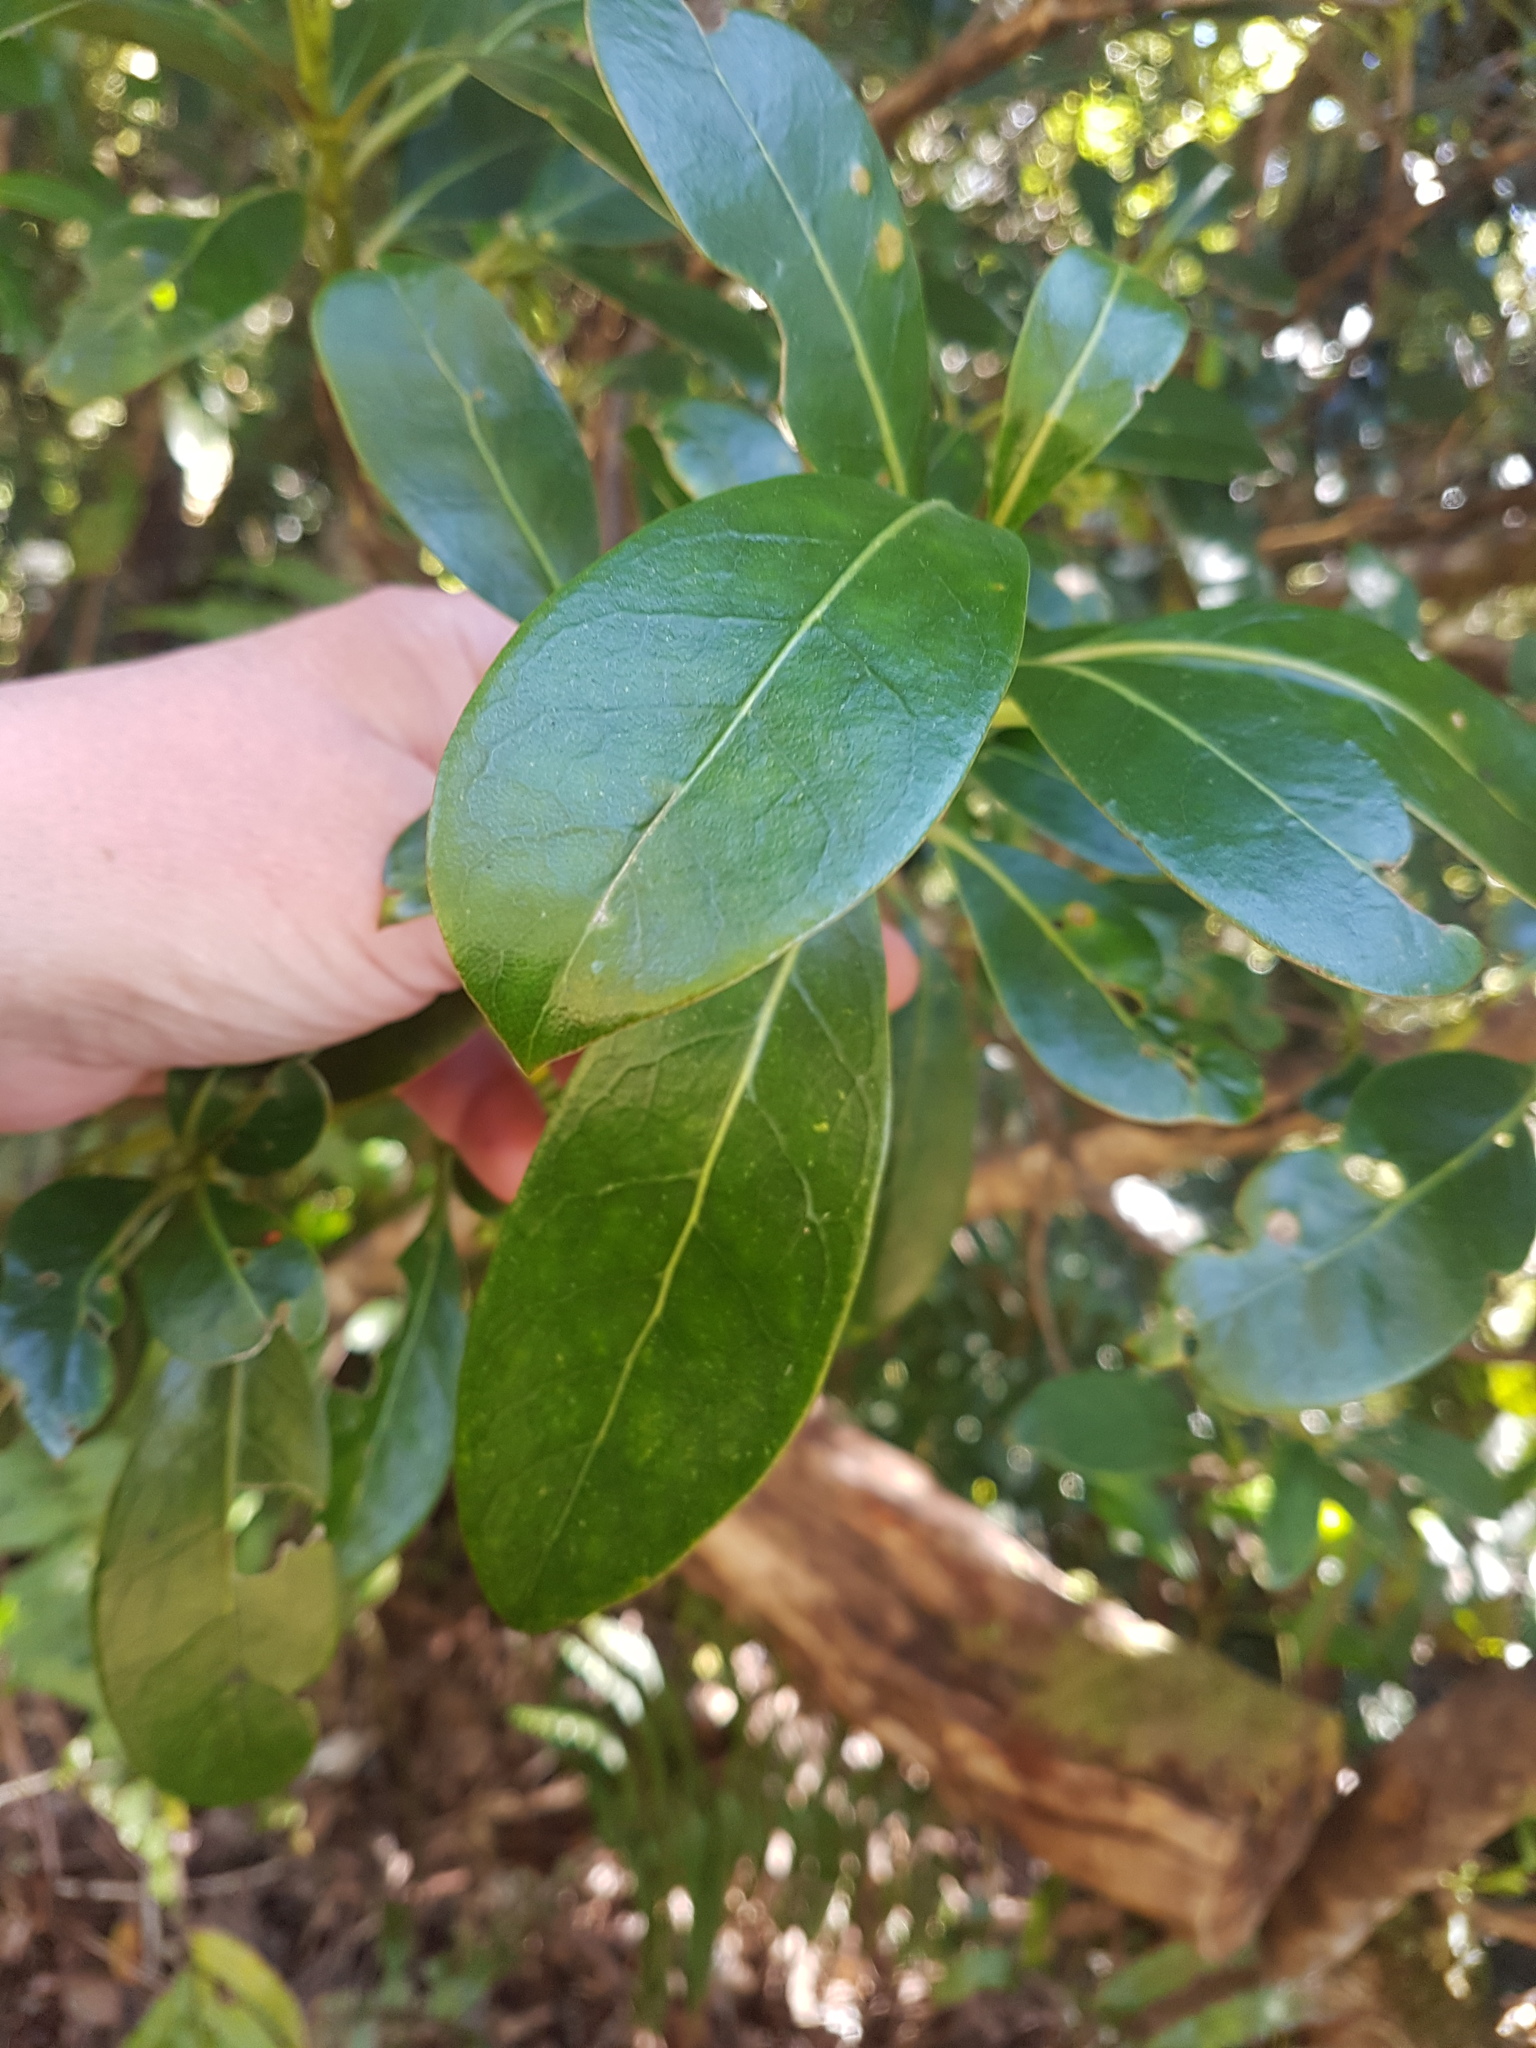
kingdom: Plantae
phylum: Tracheophyta
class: Magnoliopsida
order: Gentianales
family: Rubiaceae
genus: Coprosma
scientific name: Coprosma lucida
